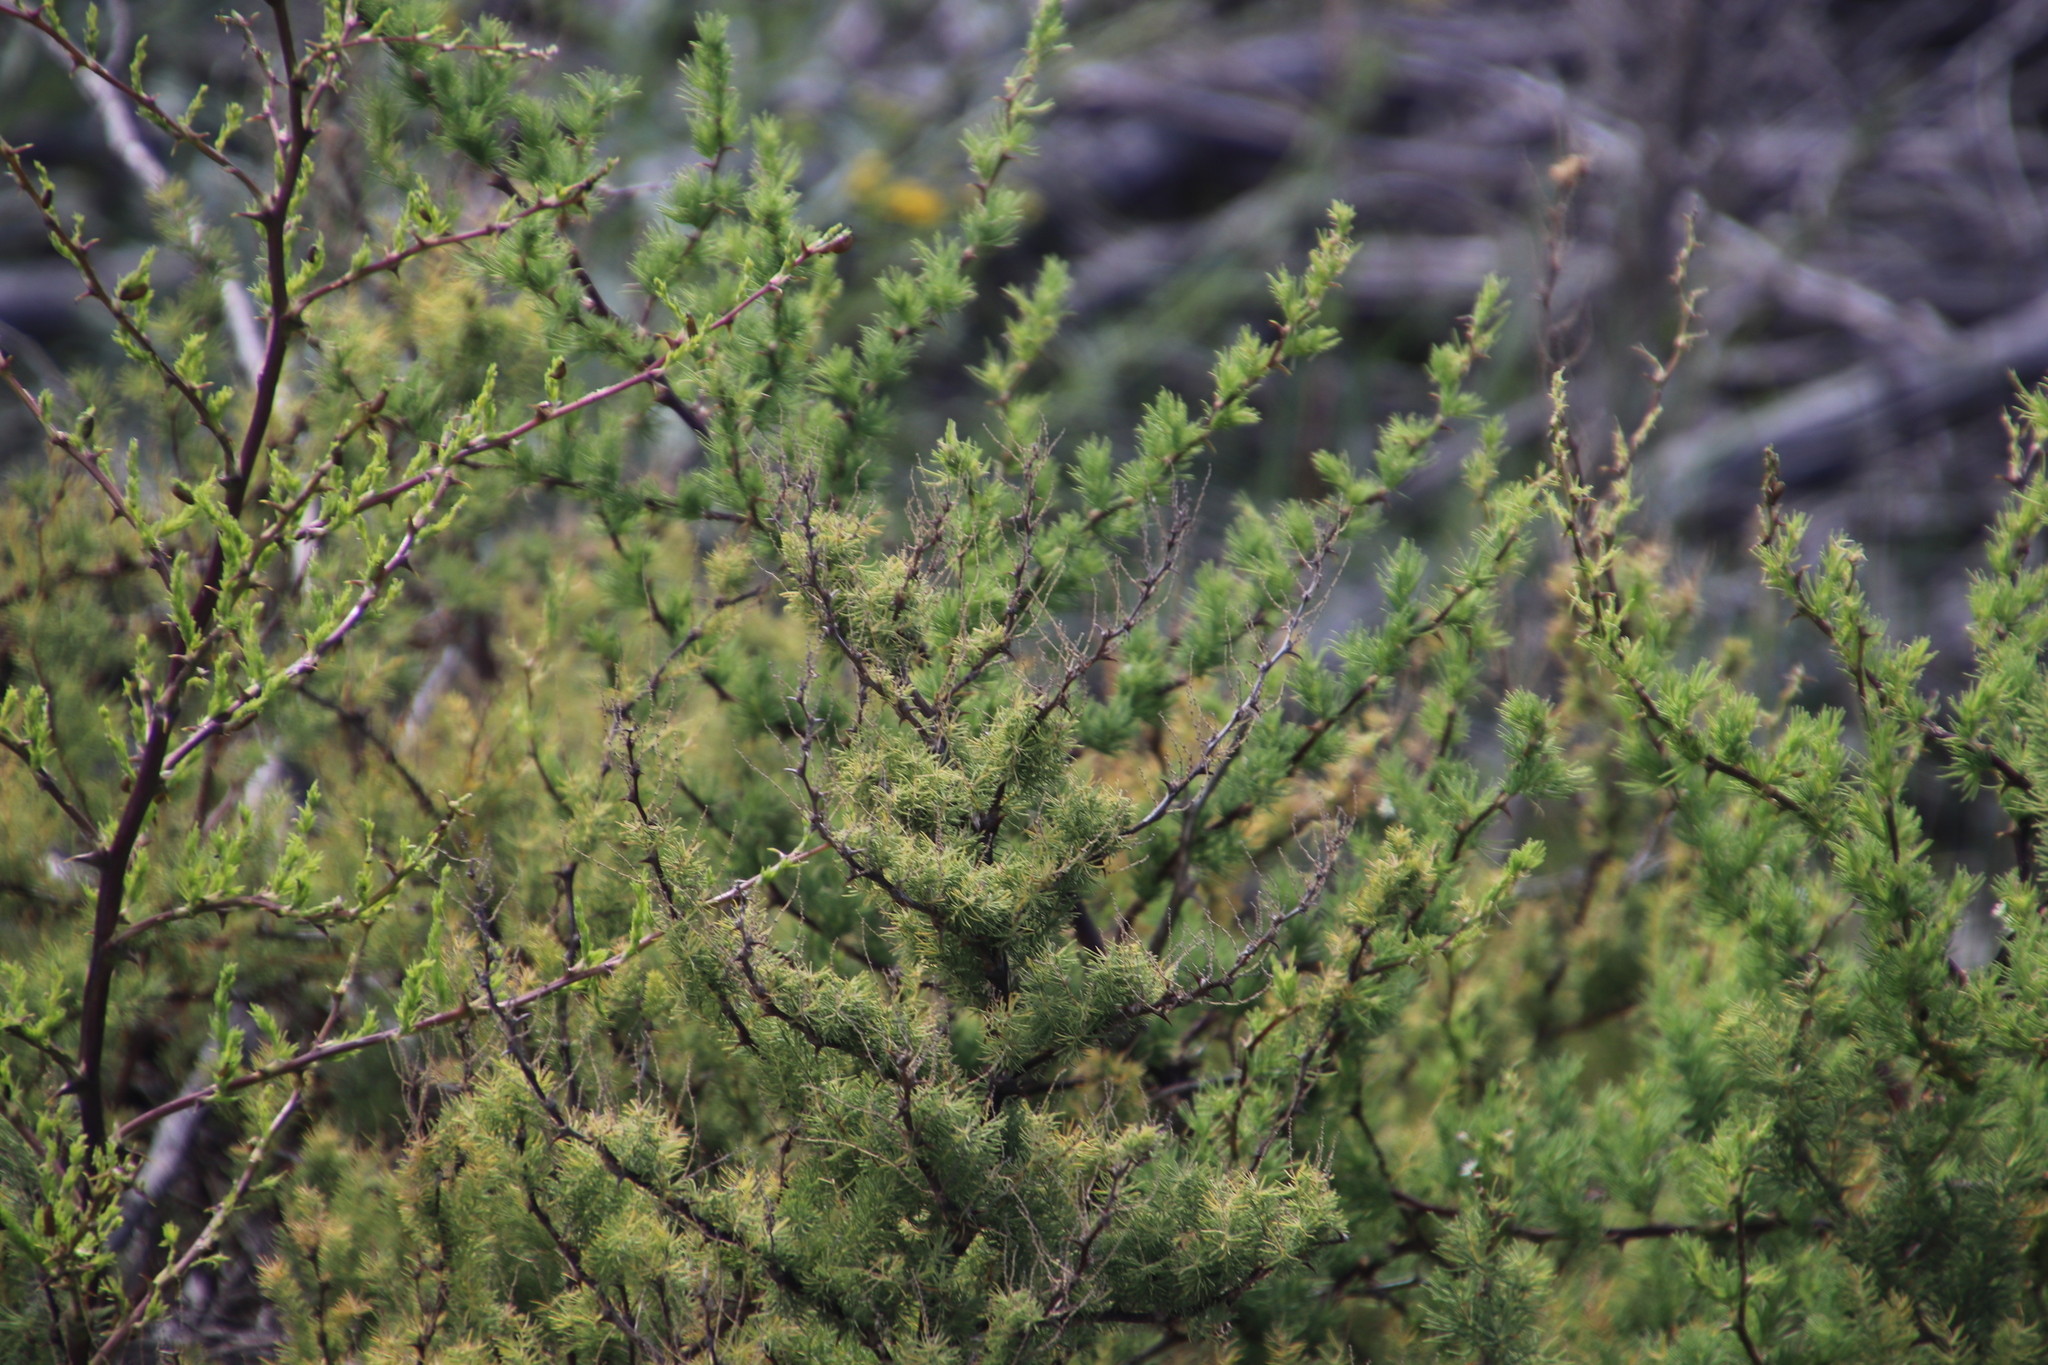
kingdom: Plantae
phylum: Tracheophyta
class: Liliopsida
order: Asparagales
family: Asparagaceae
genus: Asparagus
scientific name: Asparagus rubicundus
